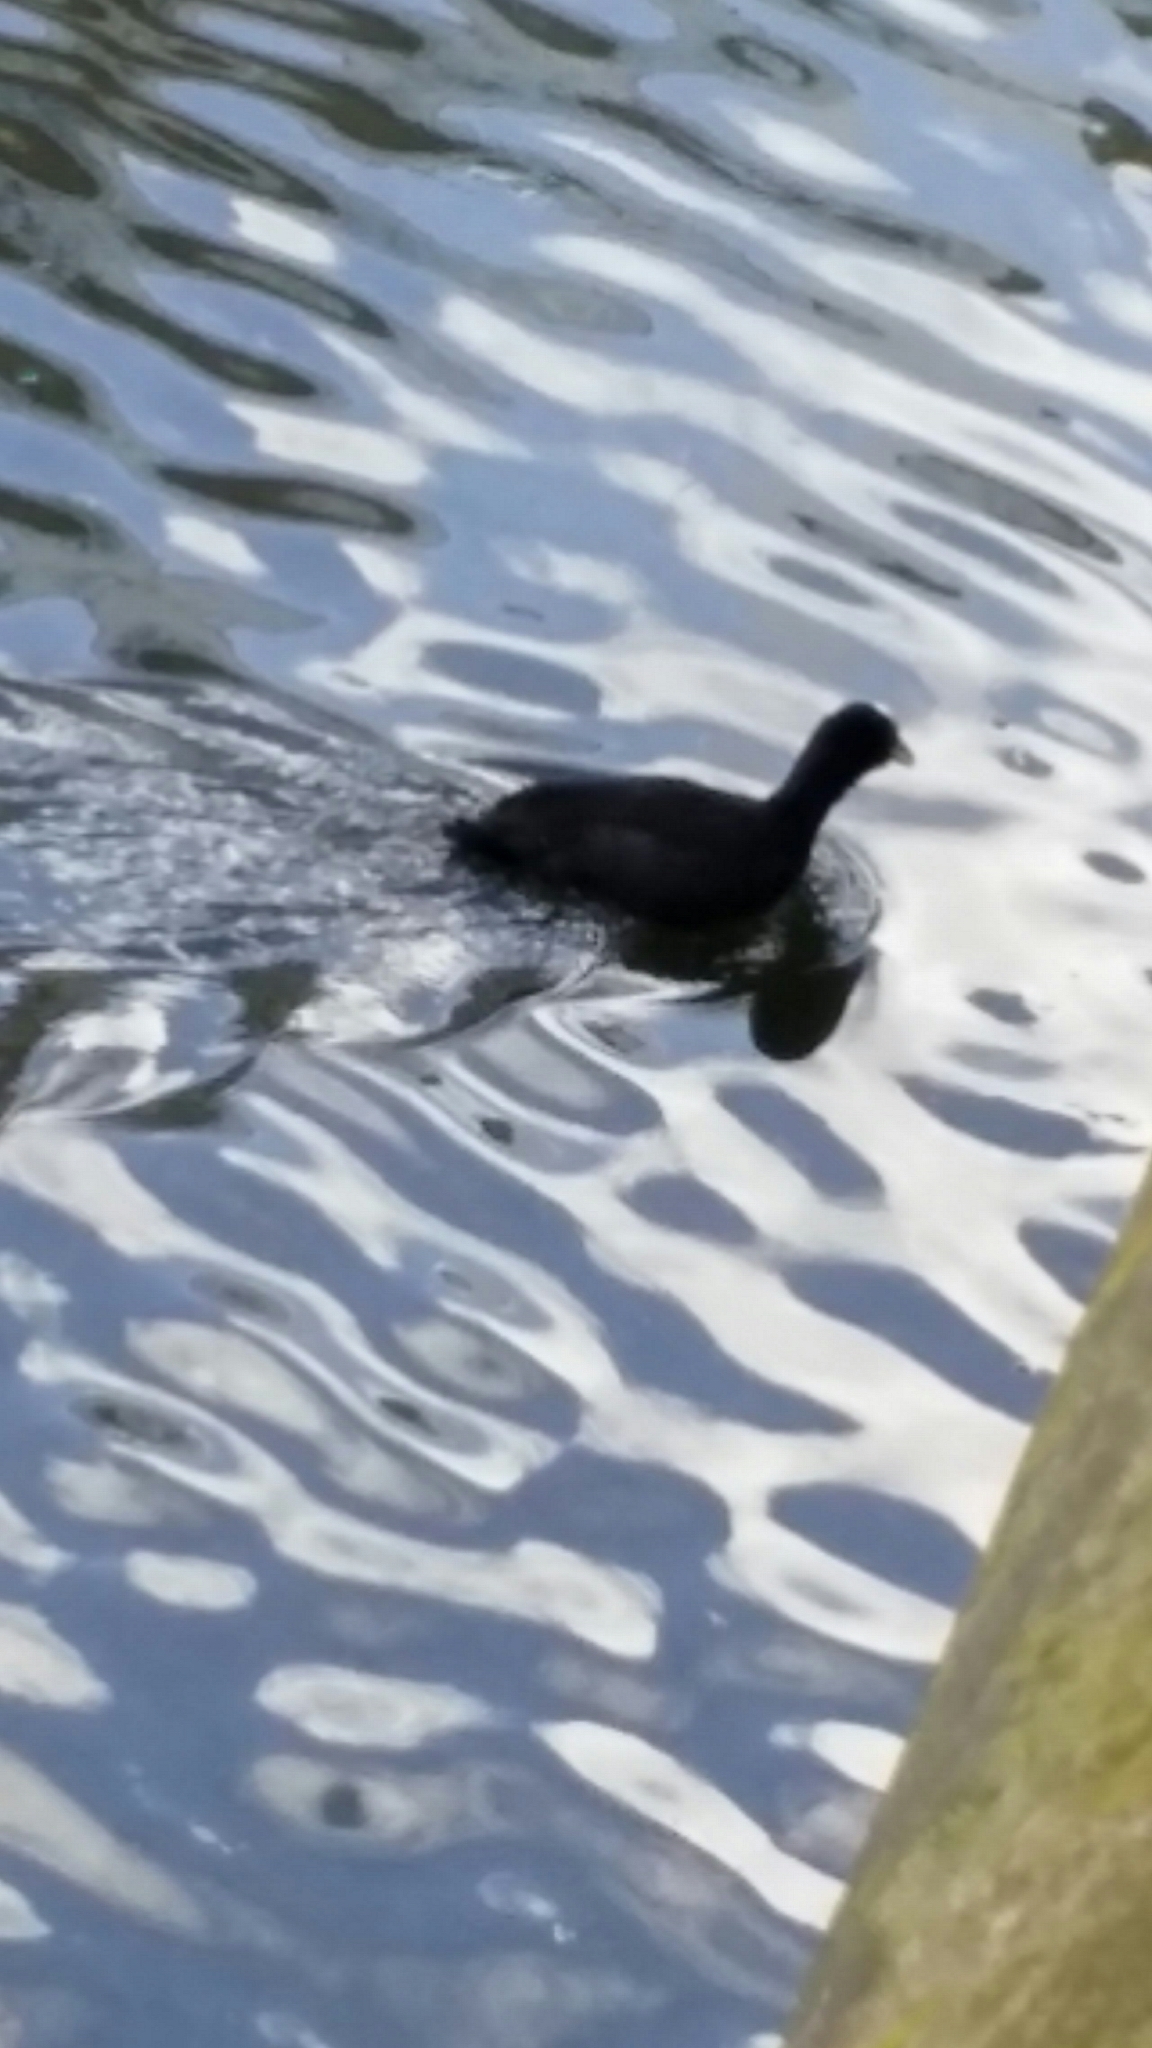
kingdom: Animalia
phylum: Chordata
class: Aves
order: Gruiformes
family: Rallidae
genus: Fulica
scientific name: Fulica atra
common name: Eurasian coot
